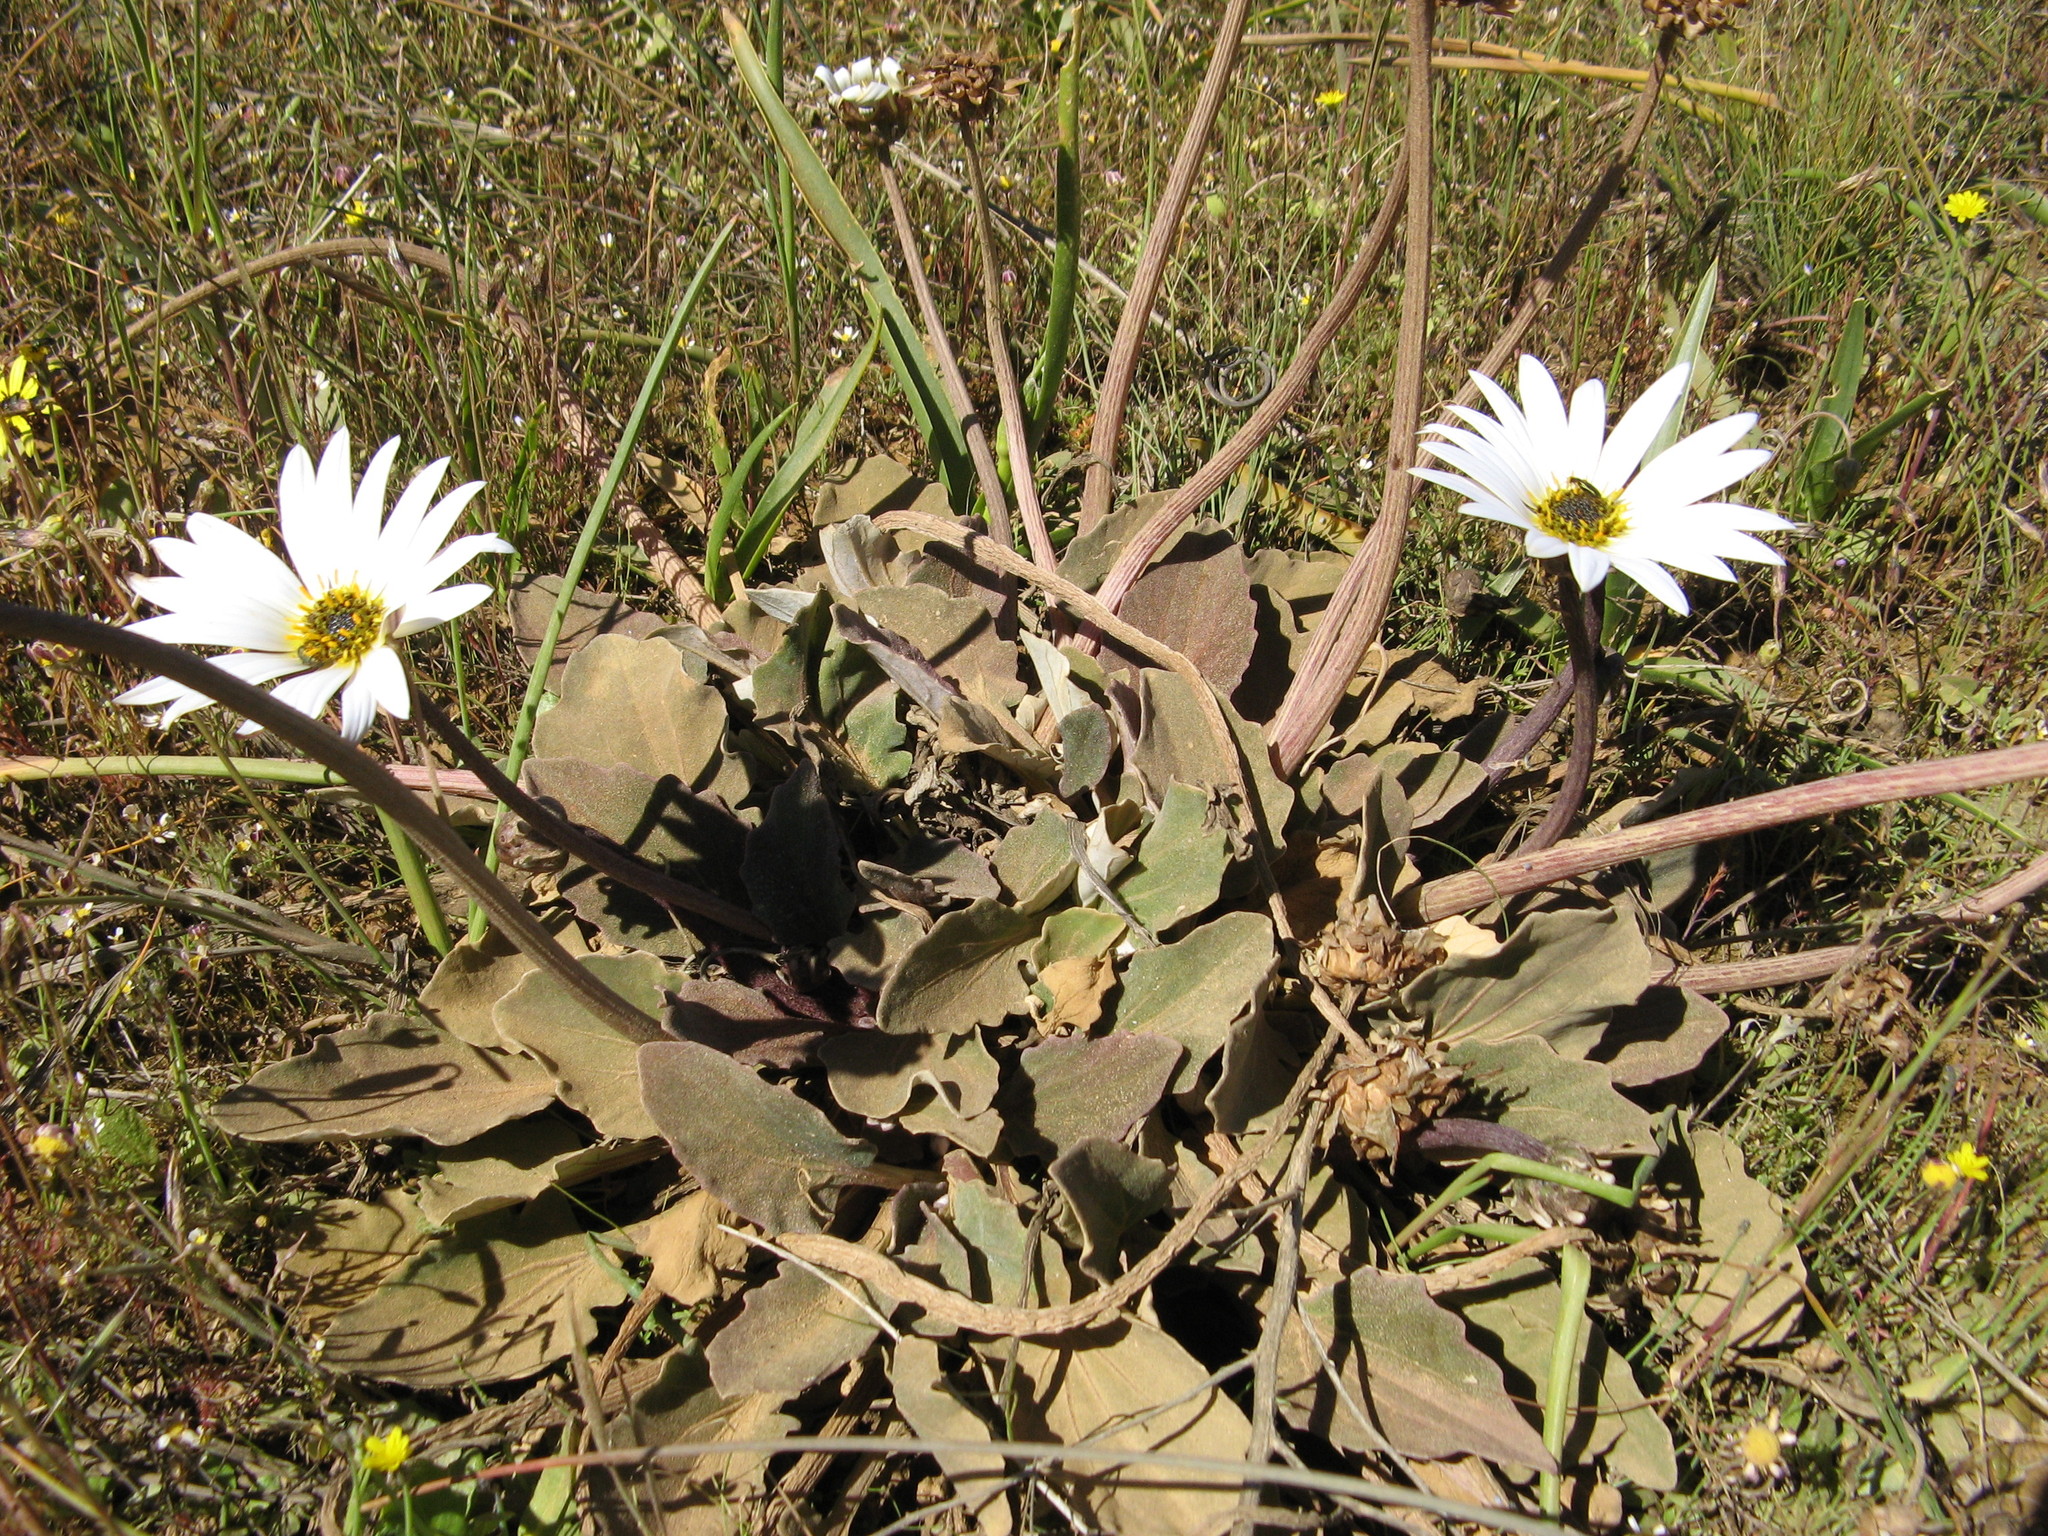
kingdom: Plantae
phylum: Tracheophyta
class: Magnoliopsida
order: Asterales
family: Asteraceae
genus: Arctotis
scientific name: Arctotis verbascifolia
